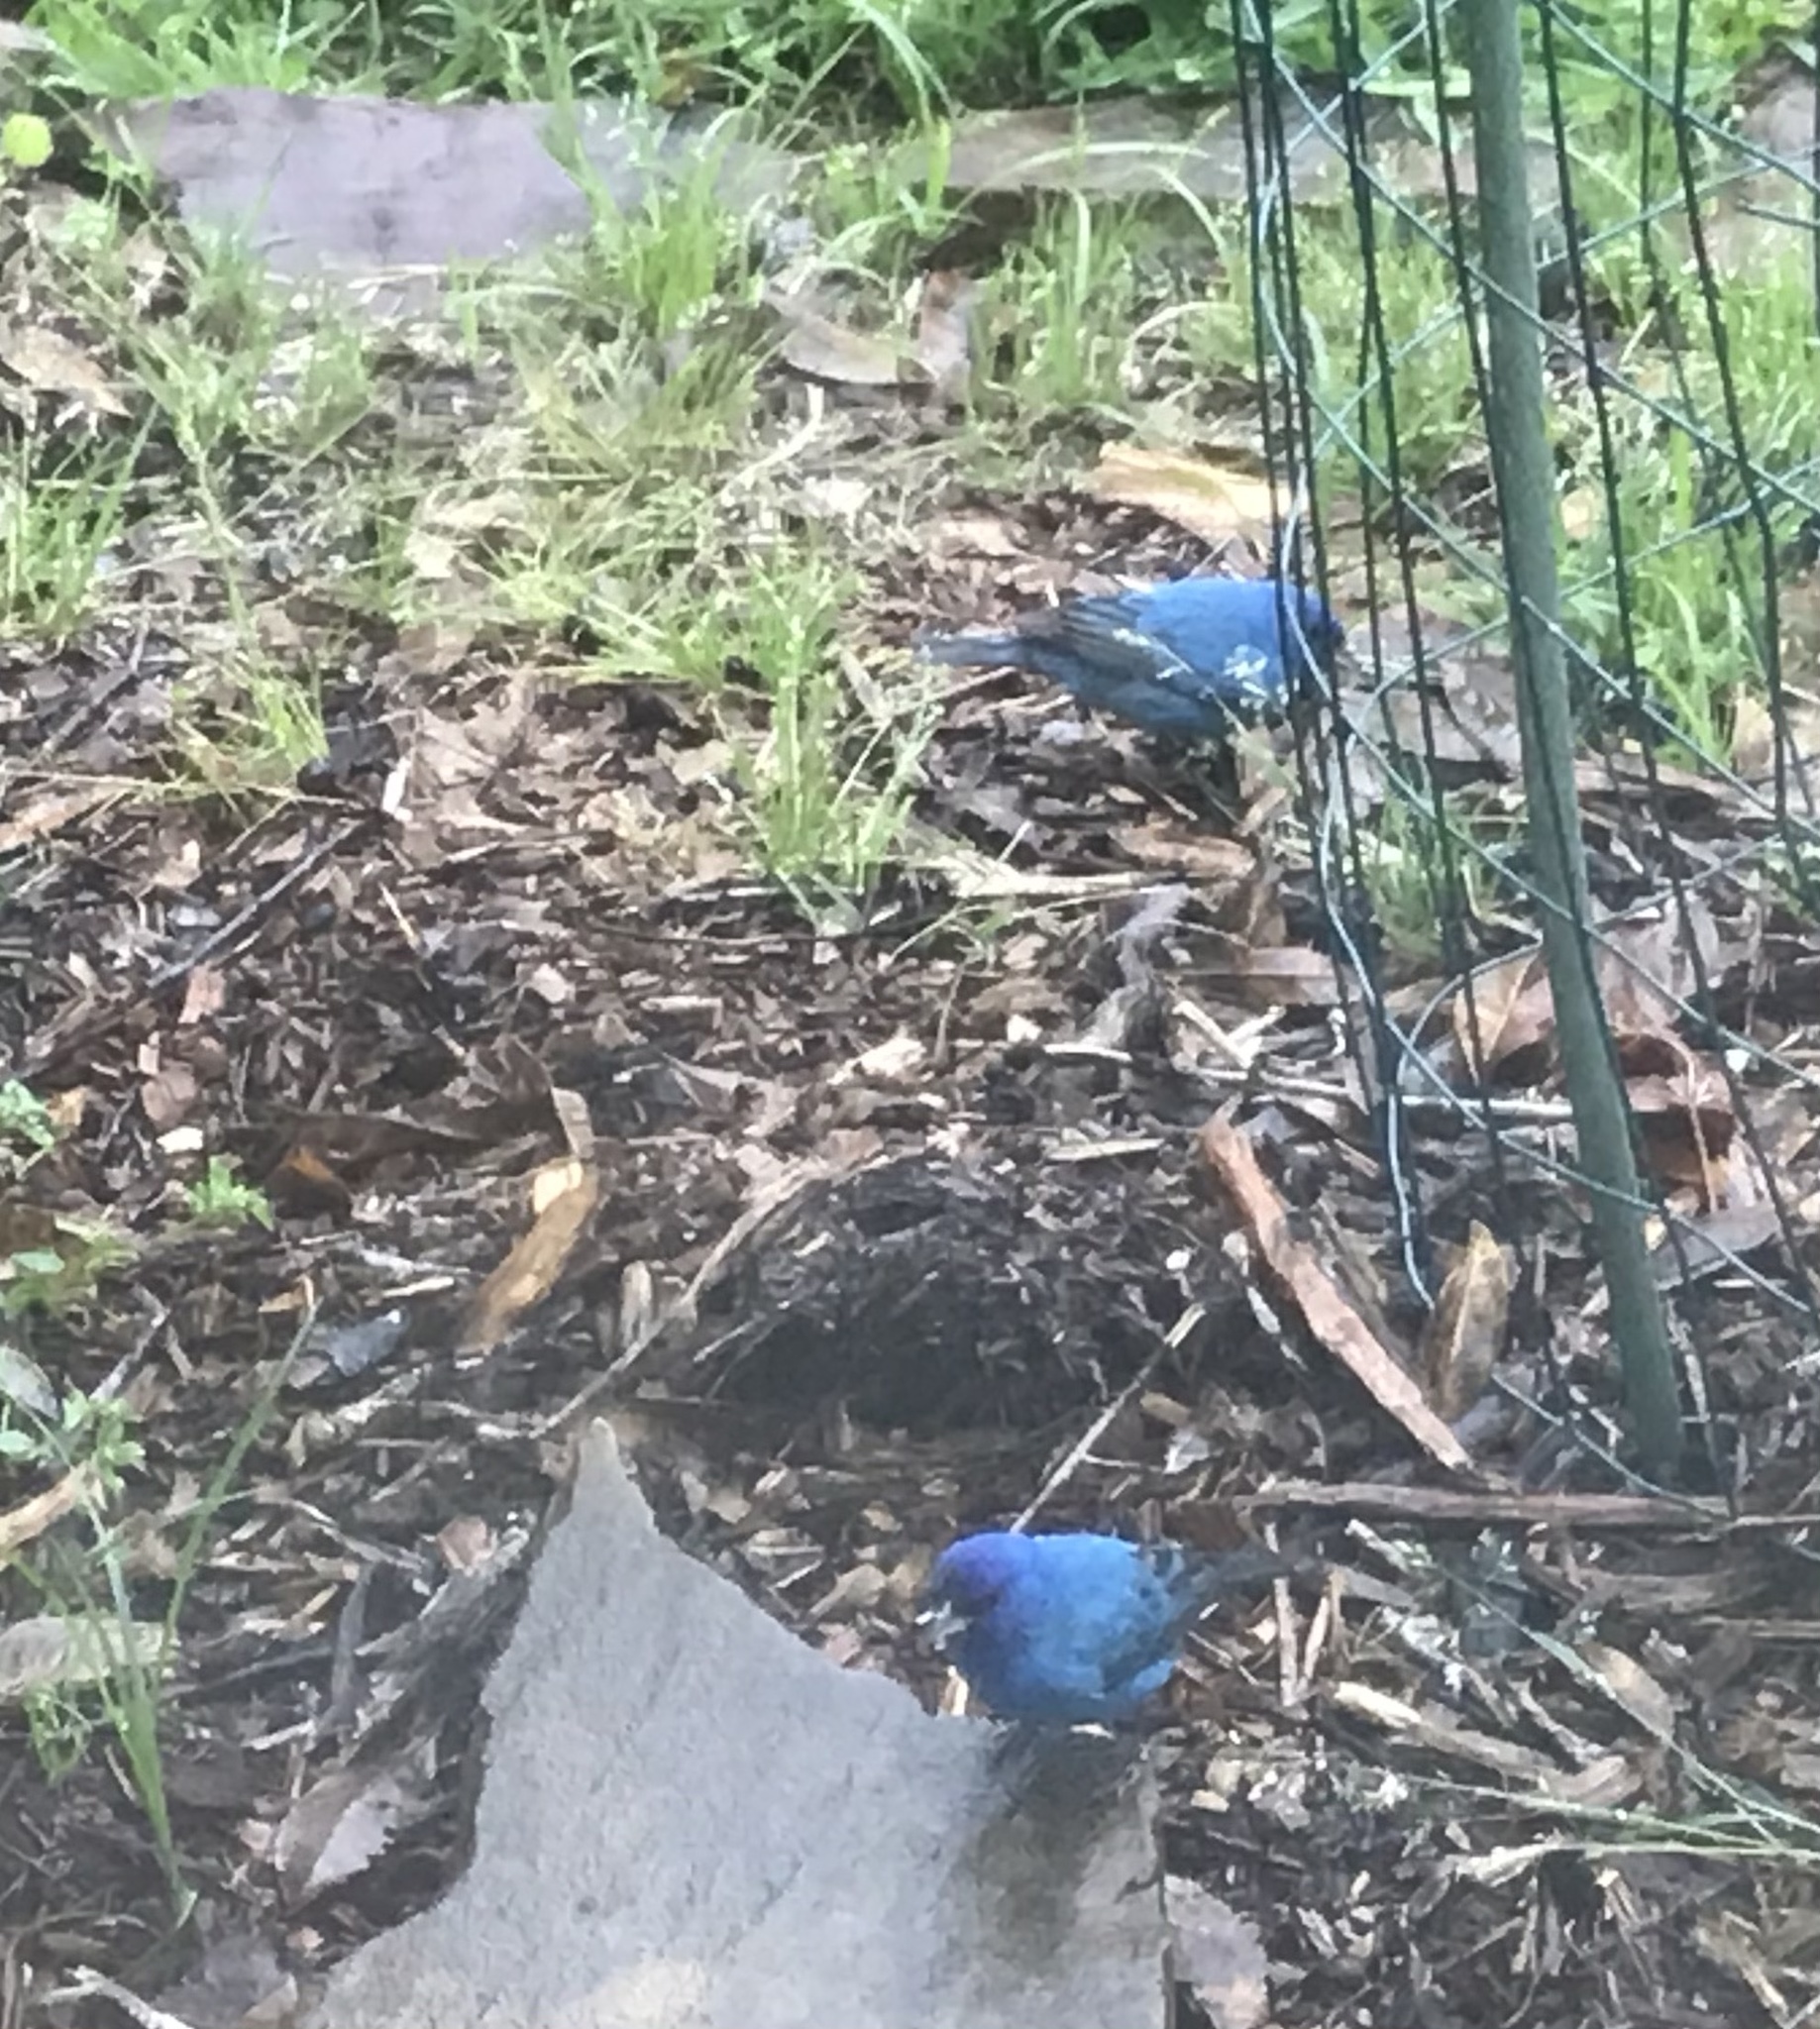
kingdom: Animalia
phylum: Chordata
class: Aves
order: Passeriformes
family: Cardinalidae
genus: Passerina
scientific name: Passerina cyanea
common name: Indigo bunting
